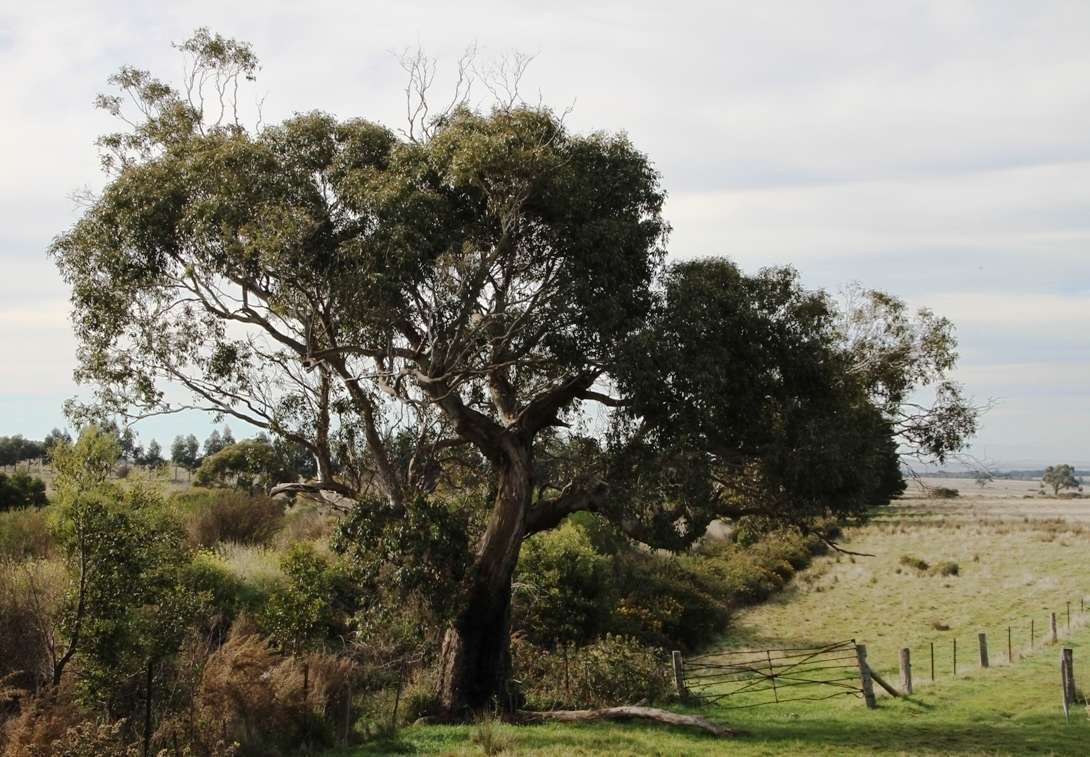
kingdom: Animalia
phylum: Chordata
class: Aves
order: Passeriformes
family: Maluridae
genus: Malurus
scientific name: Malurus cyaneus
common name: Superb fairywren
